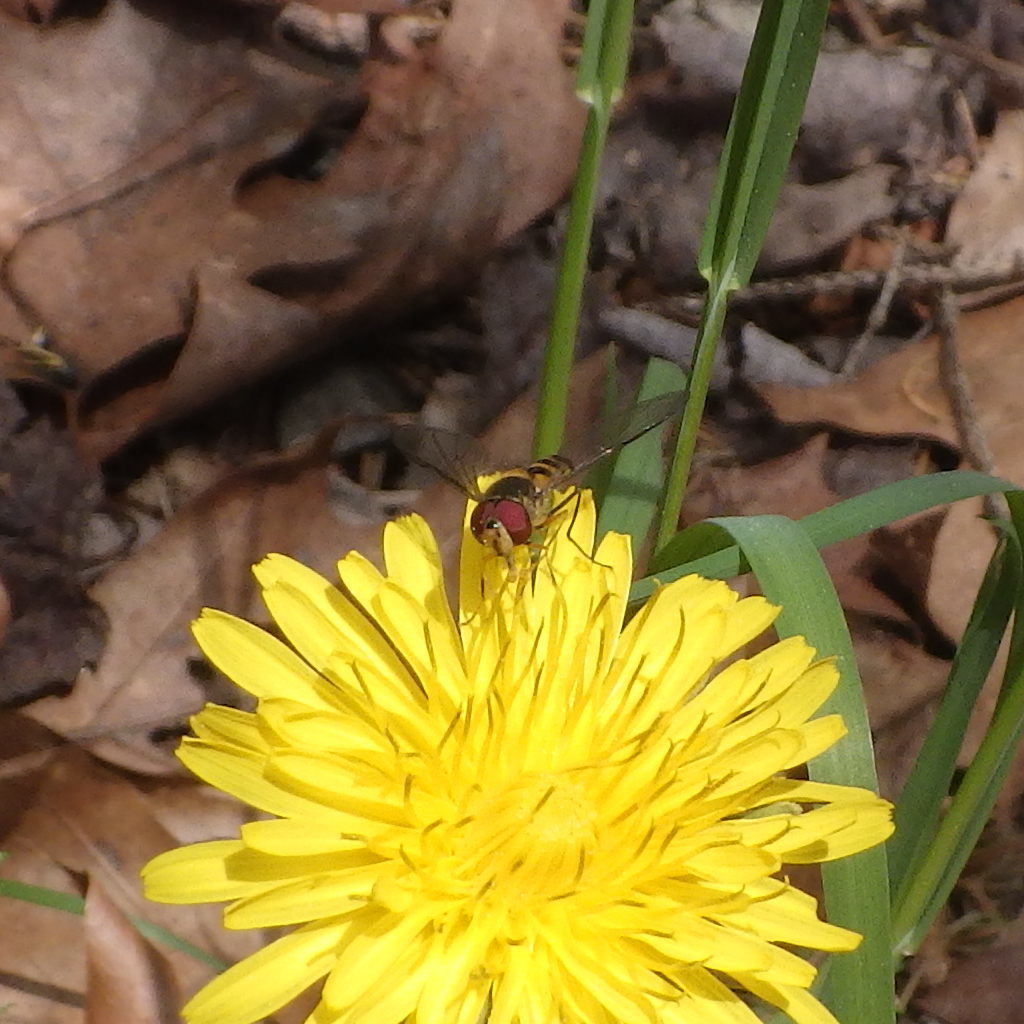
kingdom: Animalia
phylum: Arthropoda
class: Insecta
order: Diptera
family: Syrphidae
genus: Meliscaeva
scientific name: Meliscaeva cinctella
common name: American thintail fly
